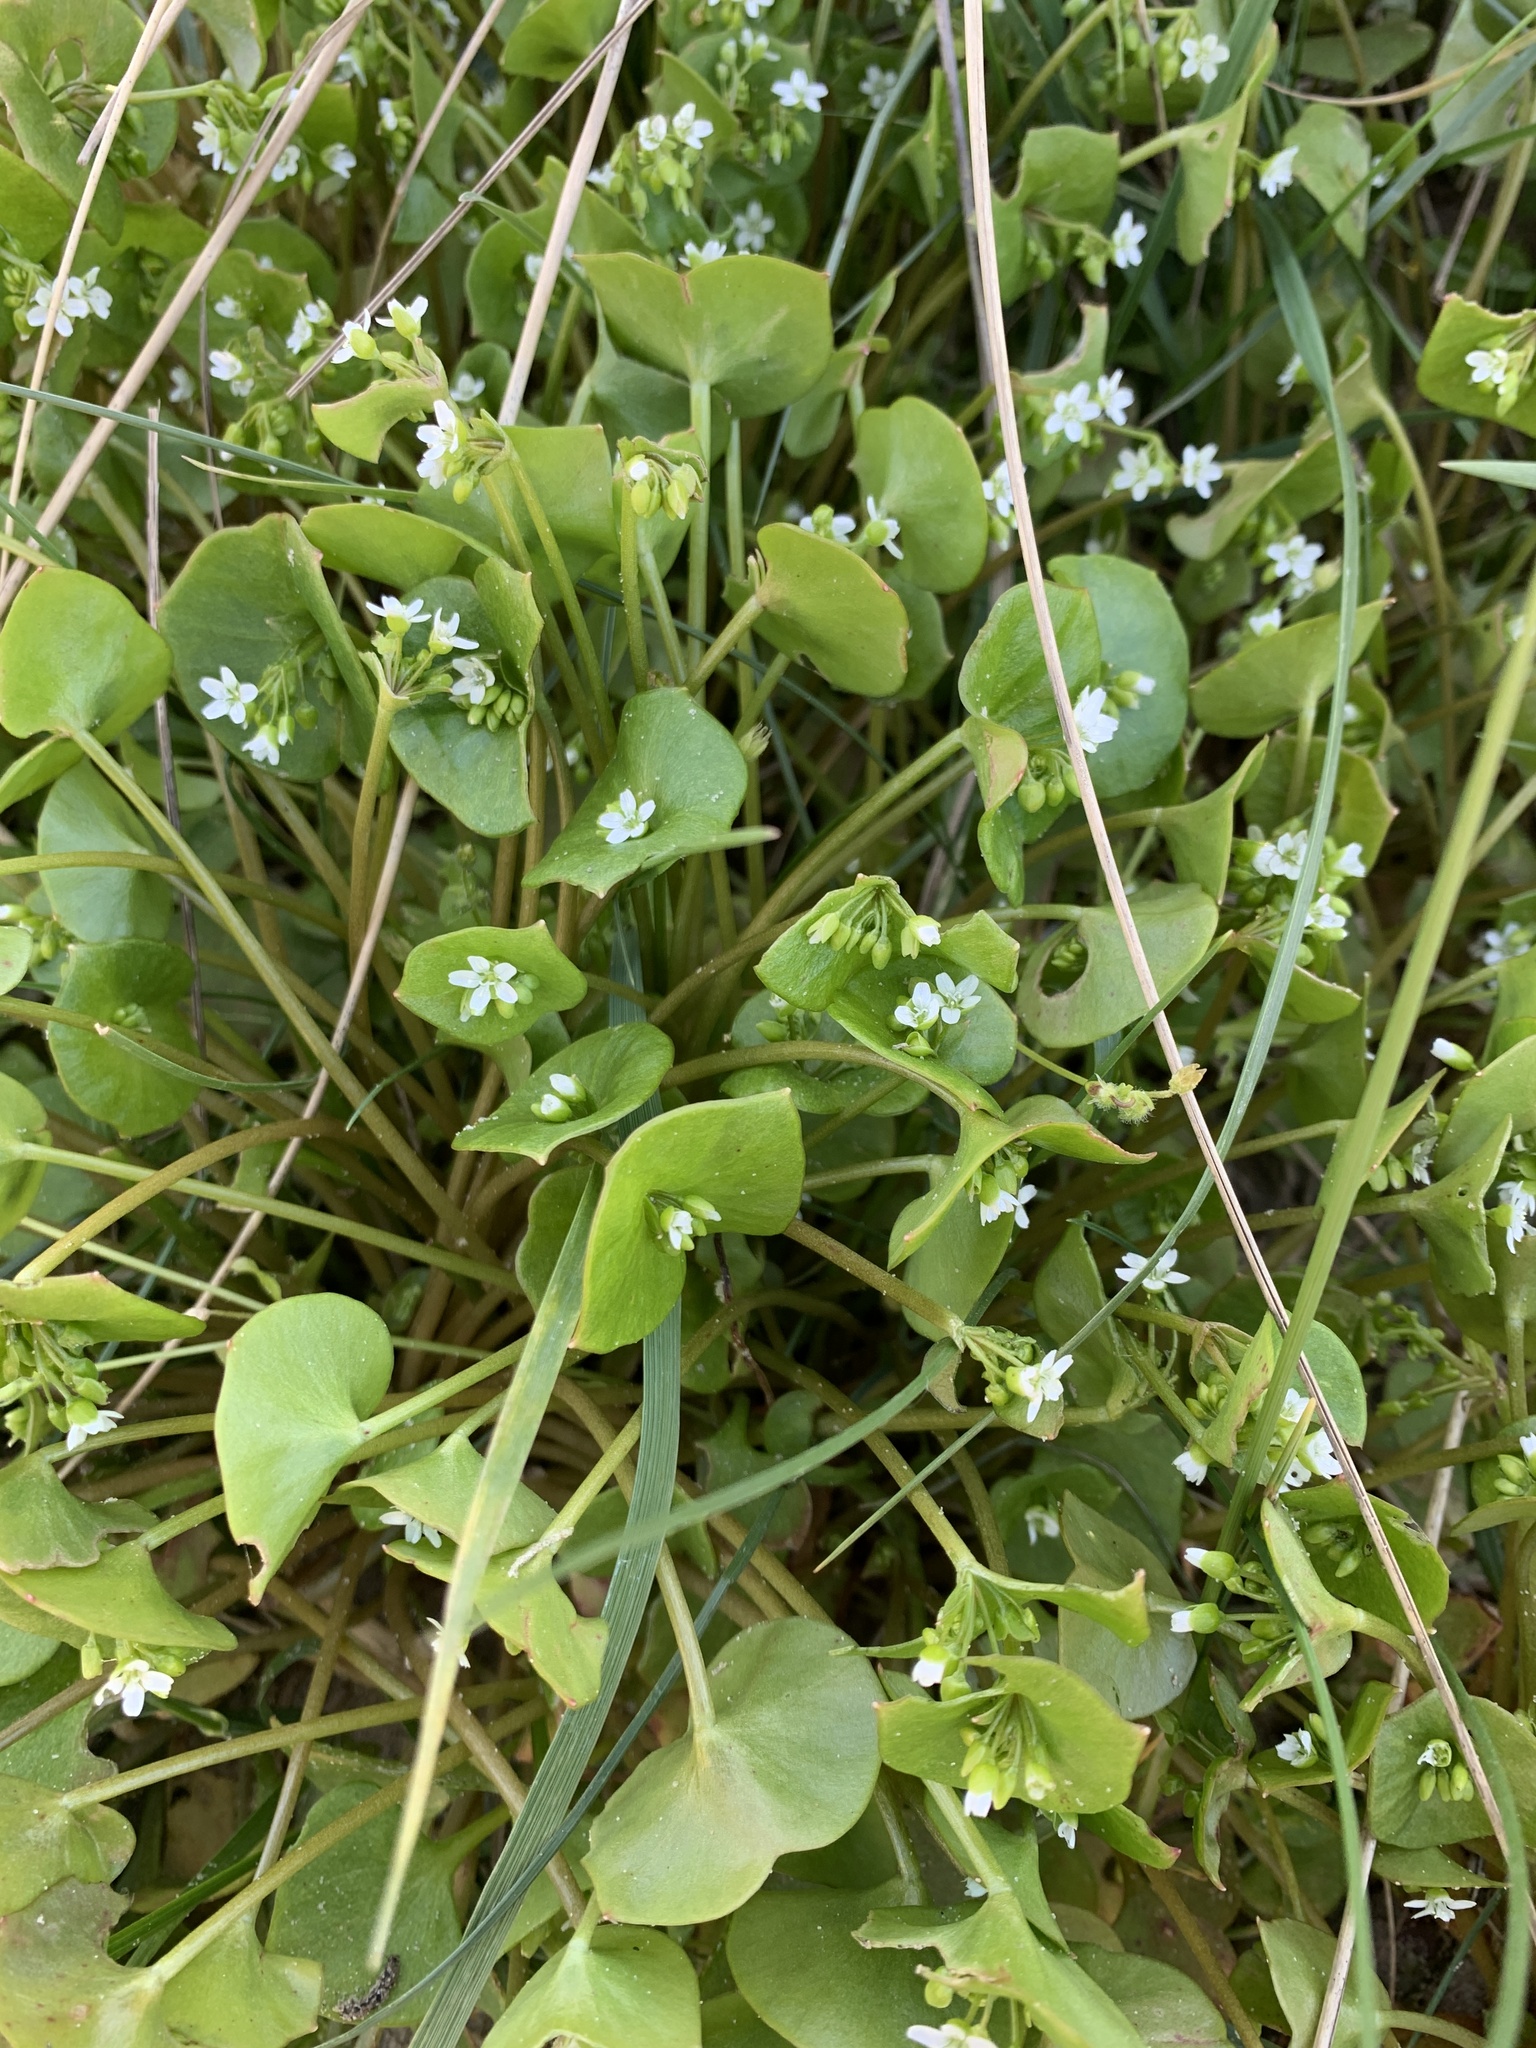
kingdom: Plantae
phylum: Tracheophyta
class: Magnoliopsida
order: Caryophyllales
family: Montiaceae
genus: Claytonia
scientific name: Claytonia perfoliata
